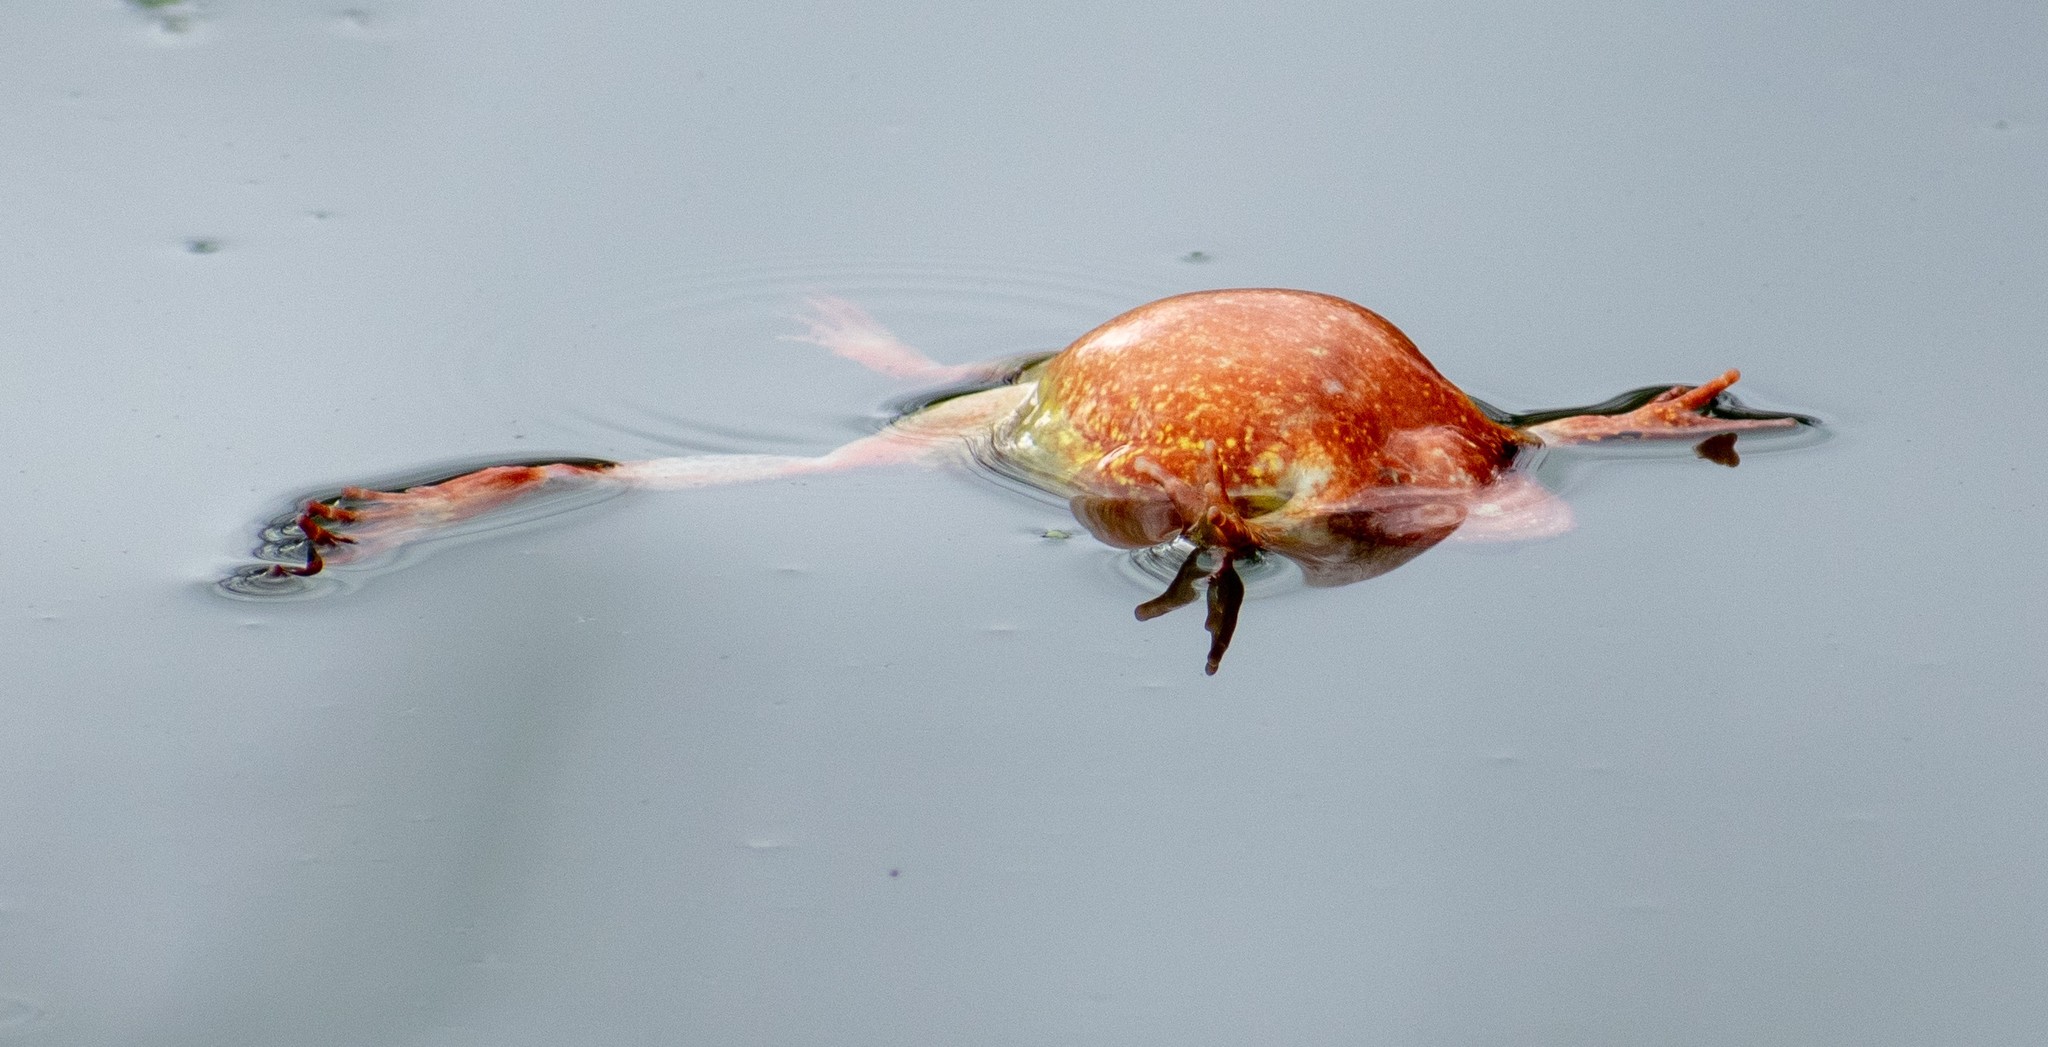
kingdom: Animalia
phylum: Chordata
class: Amphibia
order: Anura
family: Ranidae
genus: Rana
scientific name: Rana temporaria
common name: Common frog
